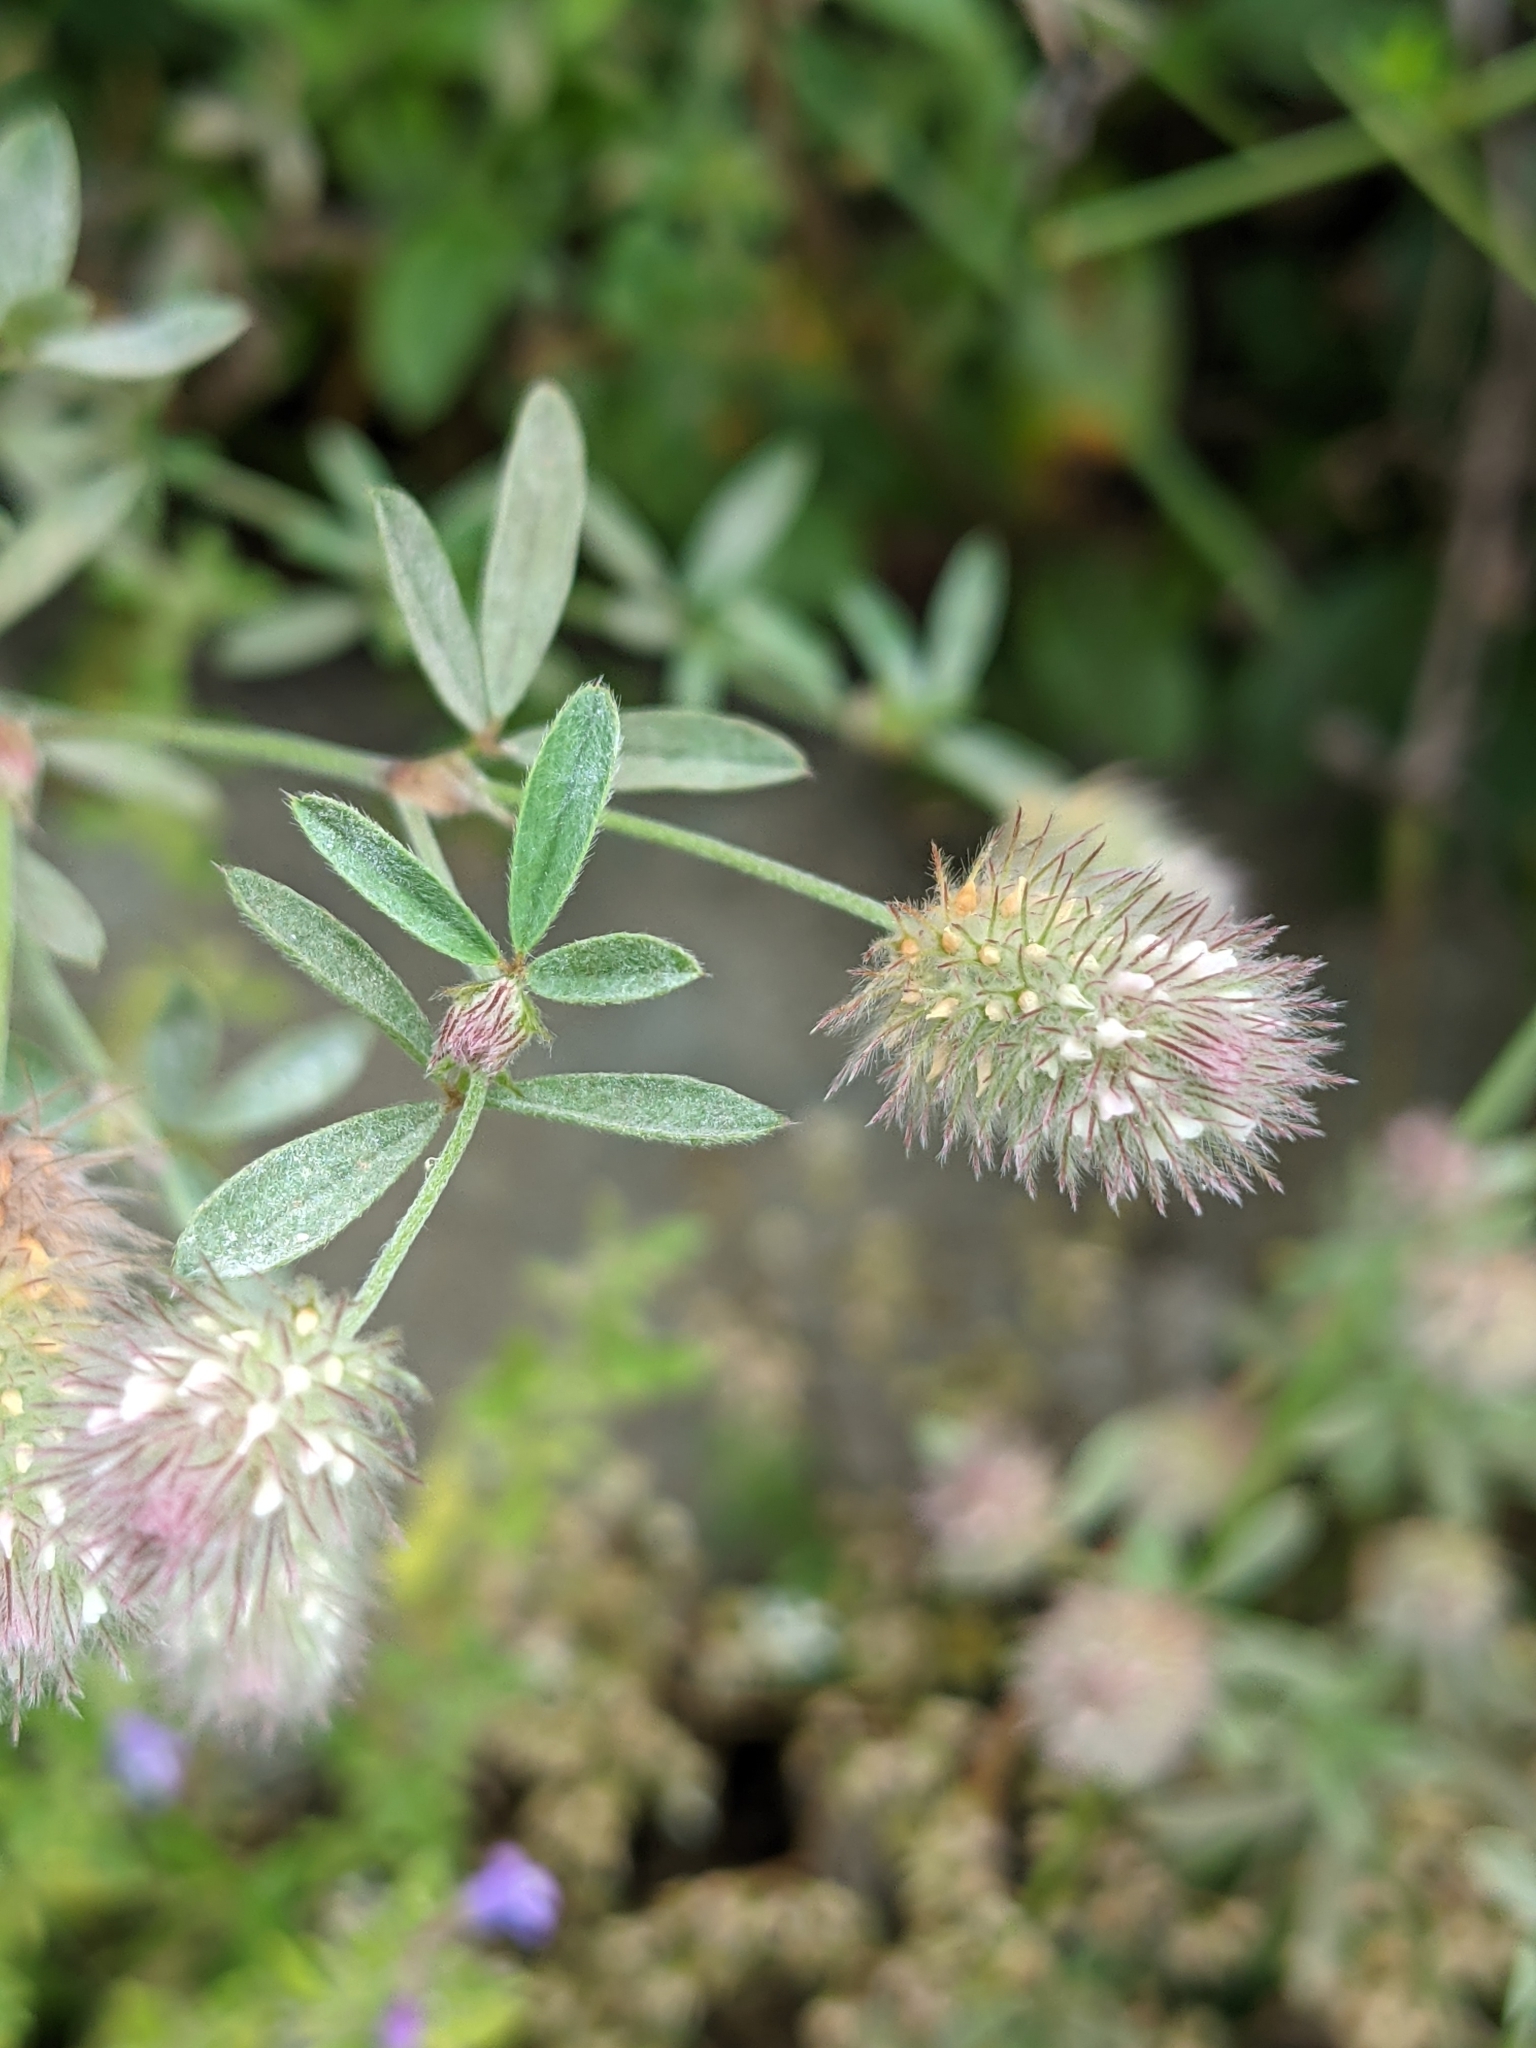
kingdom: Plantae
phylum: Tracheophyta
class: Magnoliopsida
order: Fabales
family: Fabaceae
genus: Trifolium
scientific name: Trifolium arvense
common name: Hare's-foot clover
